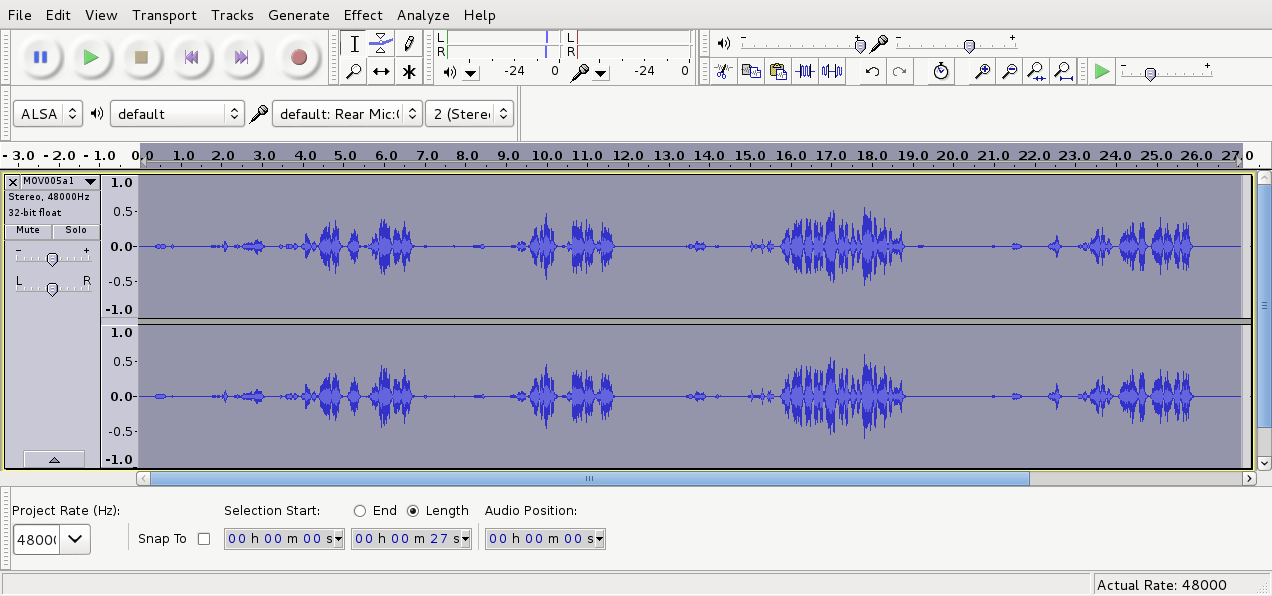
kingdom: Animalia
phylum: Chordata
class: Aves
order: Passeriformes
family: Zosteropidae
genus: Zosterops
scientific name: Zosterops lateralis
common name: Silvereye
